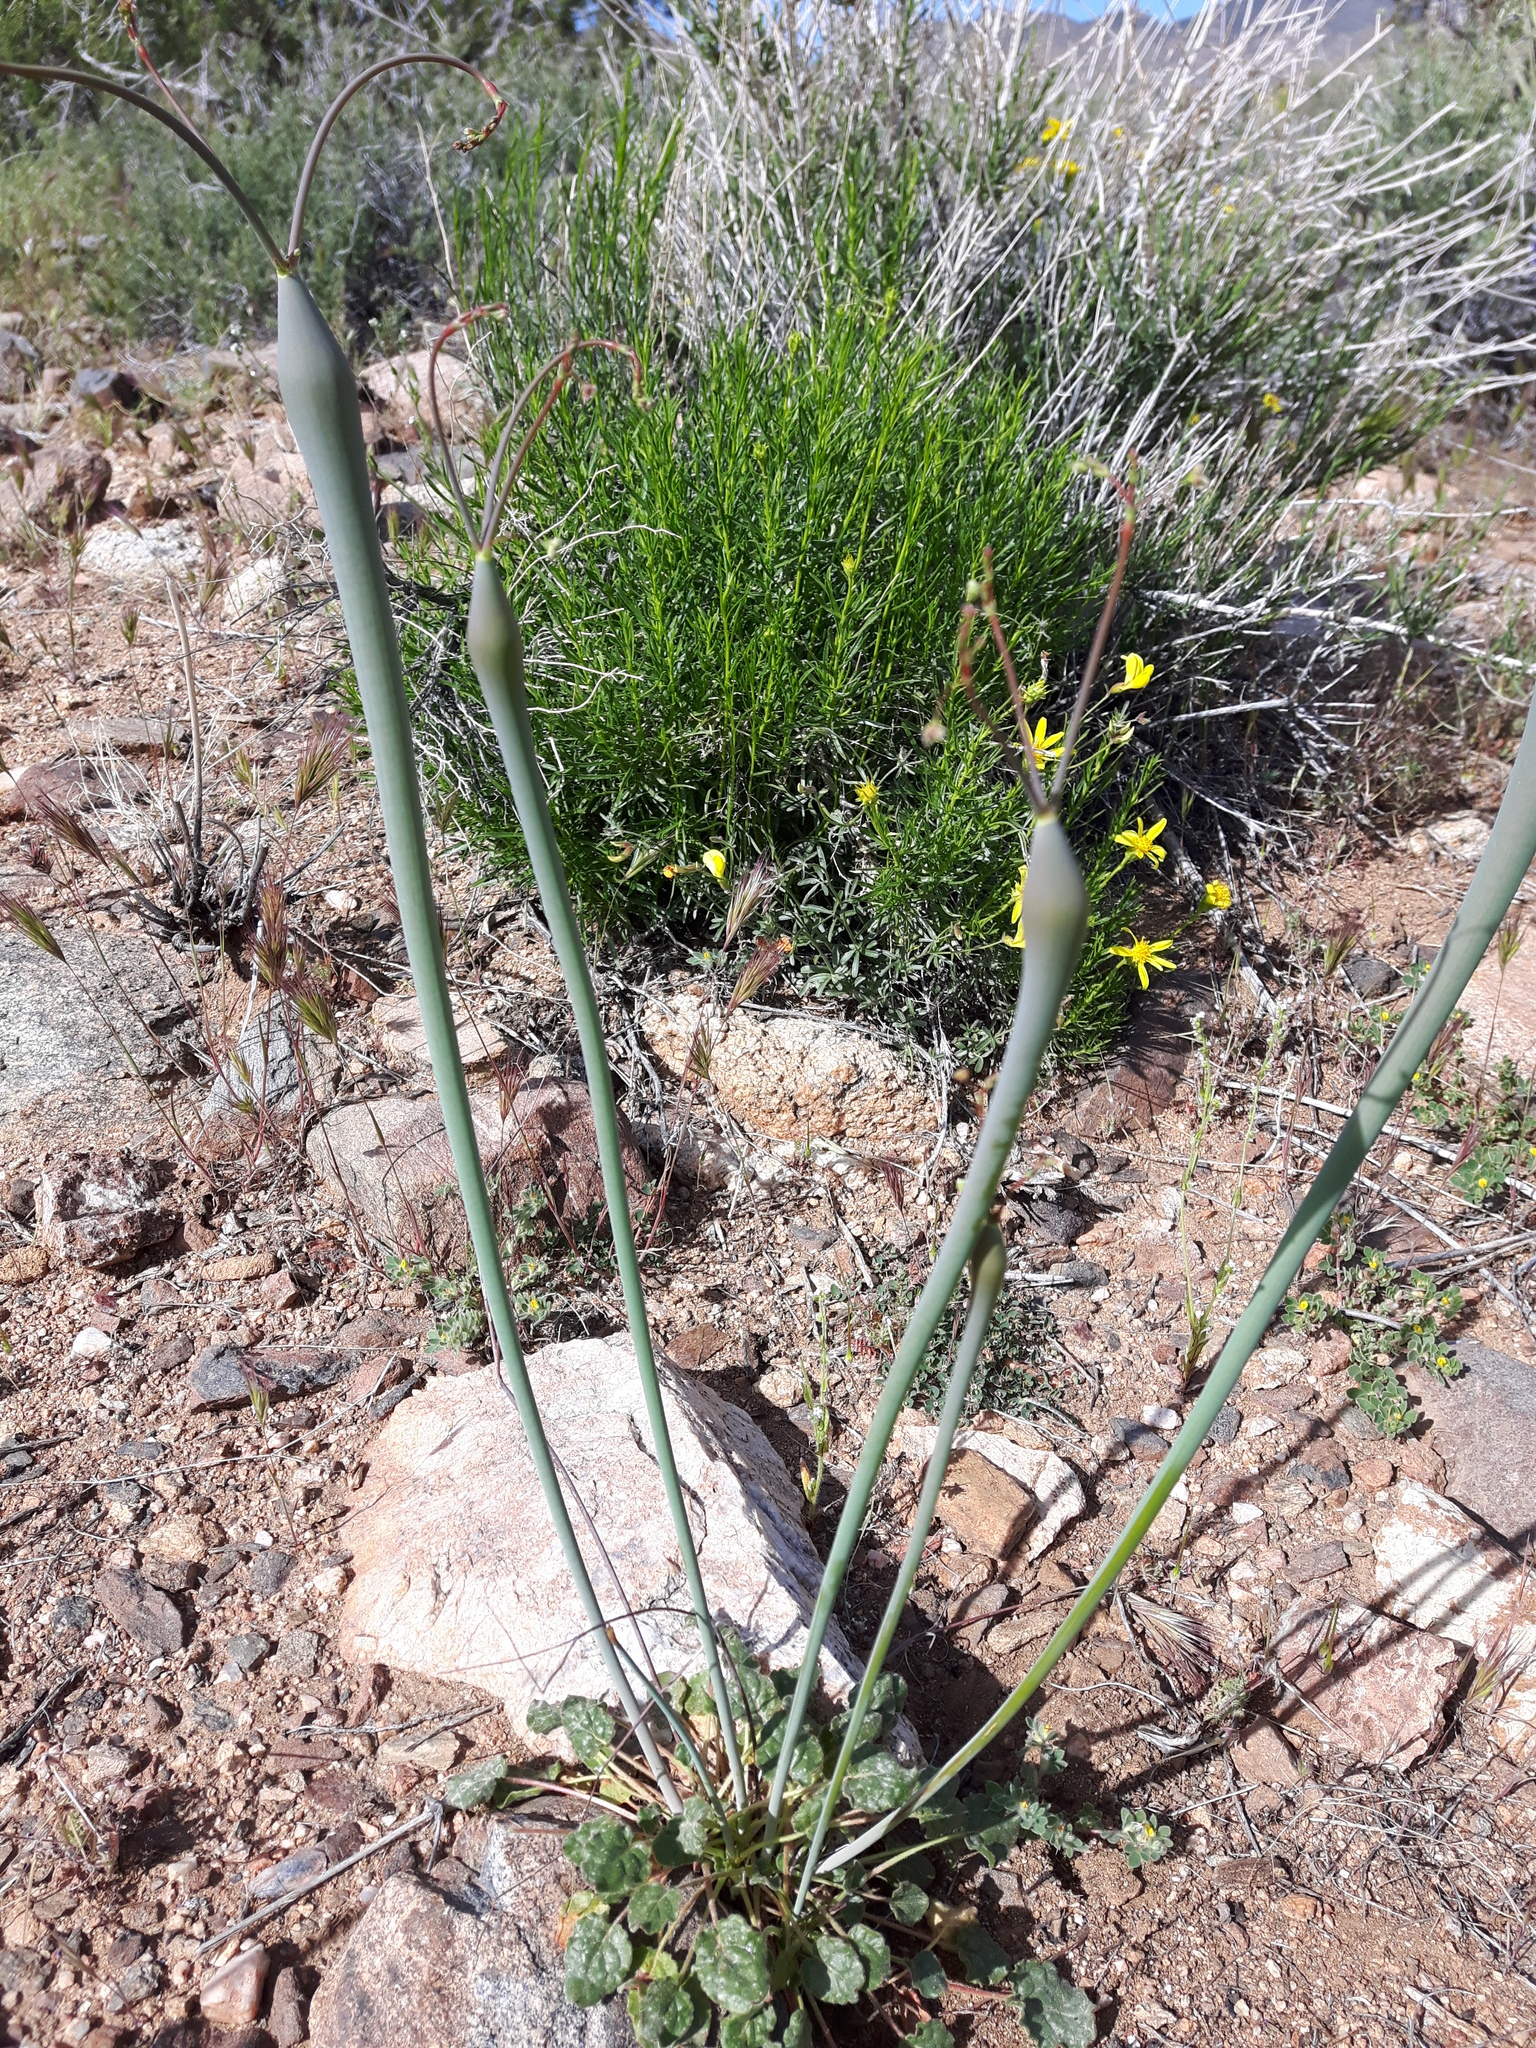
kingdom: Plantae
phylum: Tracheophyta
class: Magnoliopsida
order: Caryophyllales
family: Polygonaceae
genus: Eriogonum
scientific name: Eriogonum inflatum
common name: Desert trumpet
